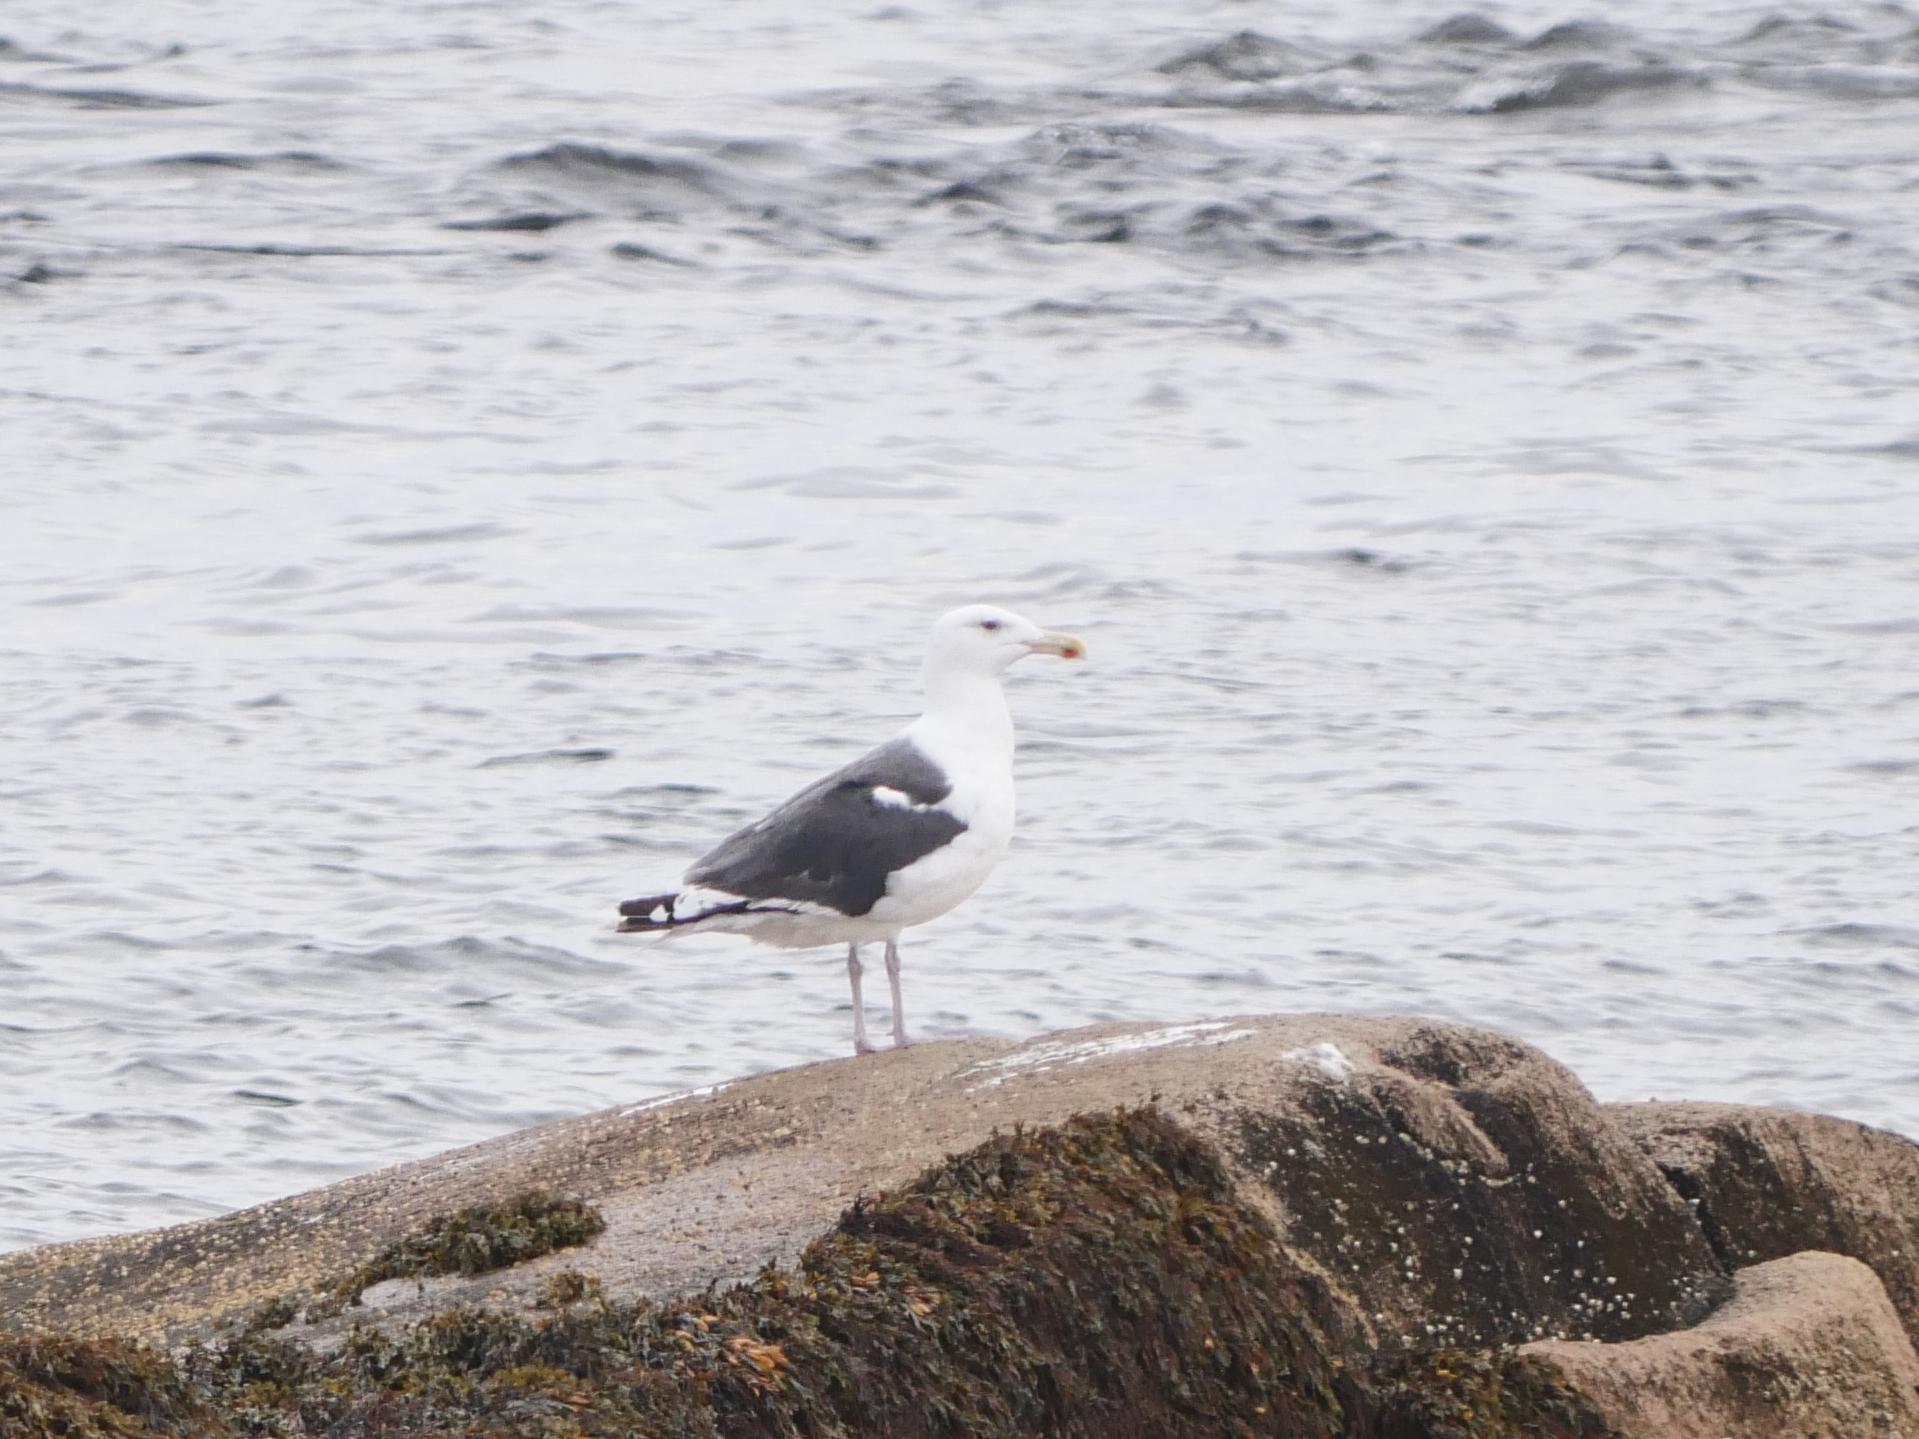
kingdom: Animalia
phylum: Chordata
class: Aves
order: Charadriiformes
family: Laridae
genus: Larus
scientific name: Larus marinus
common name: Great black-backed gull
